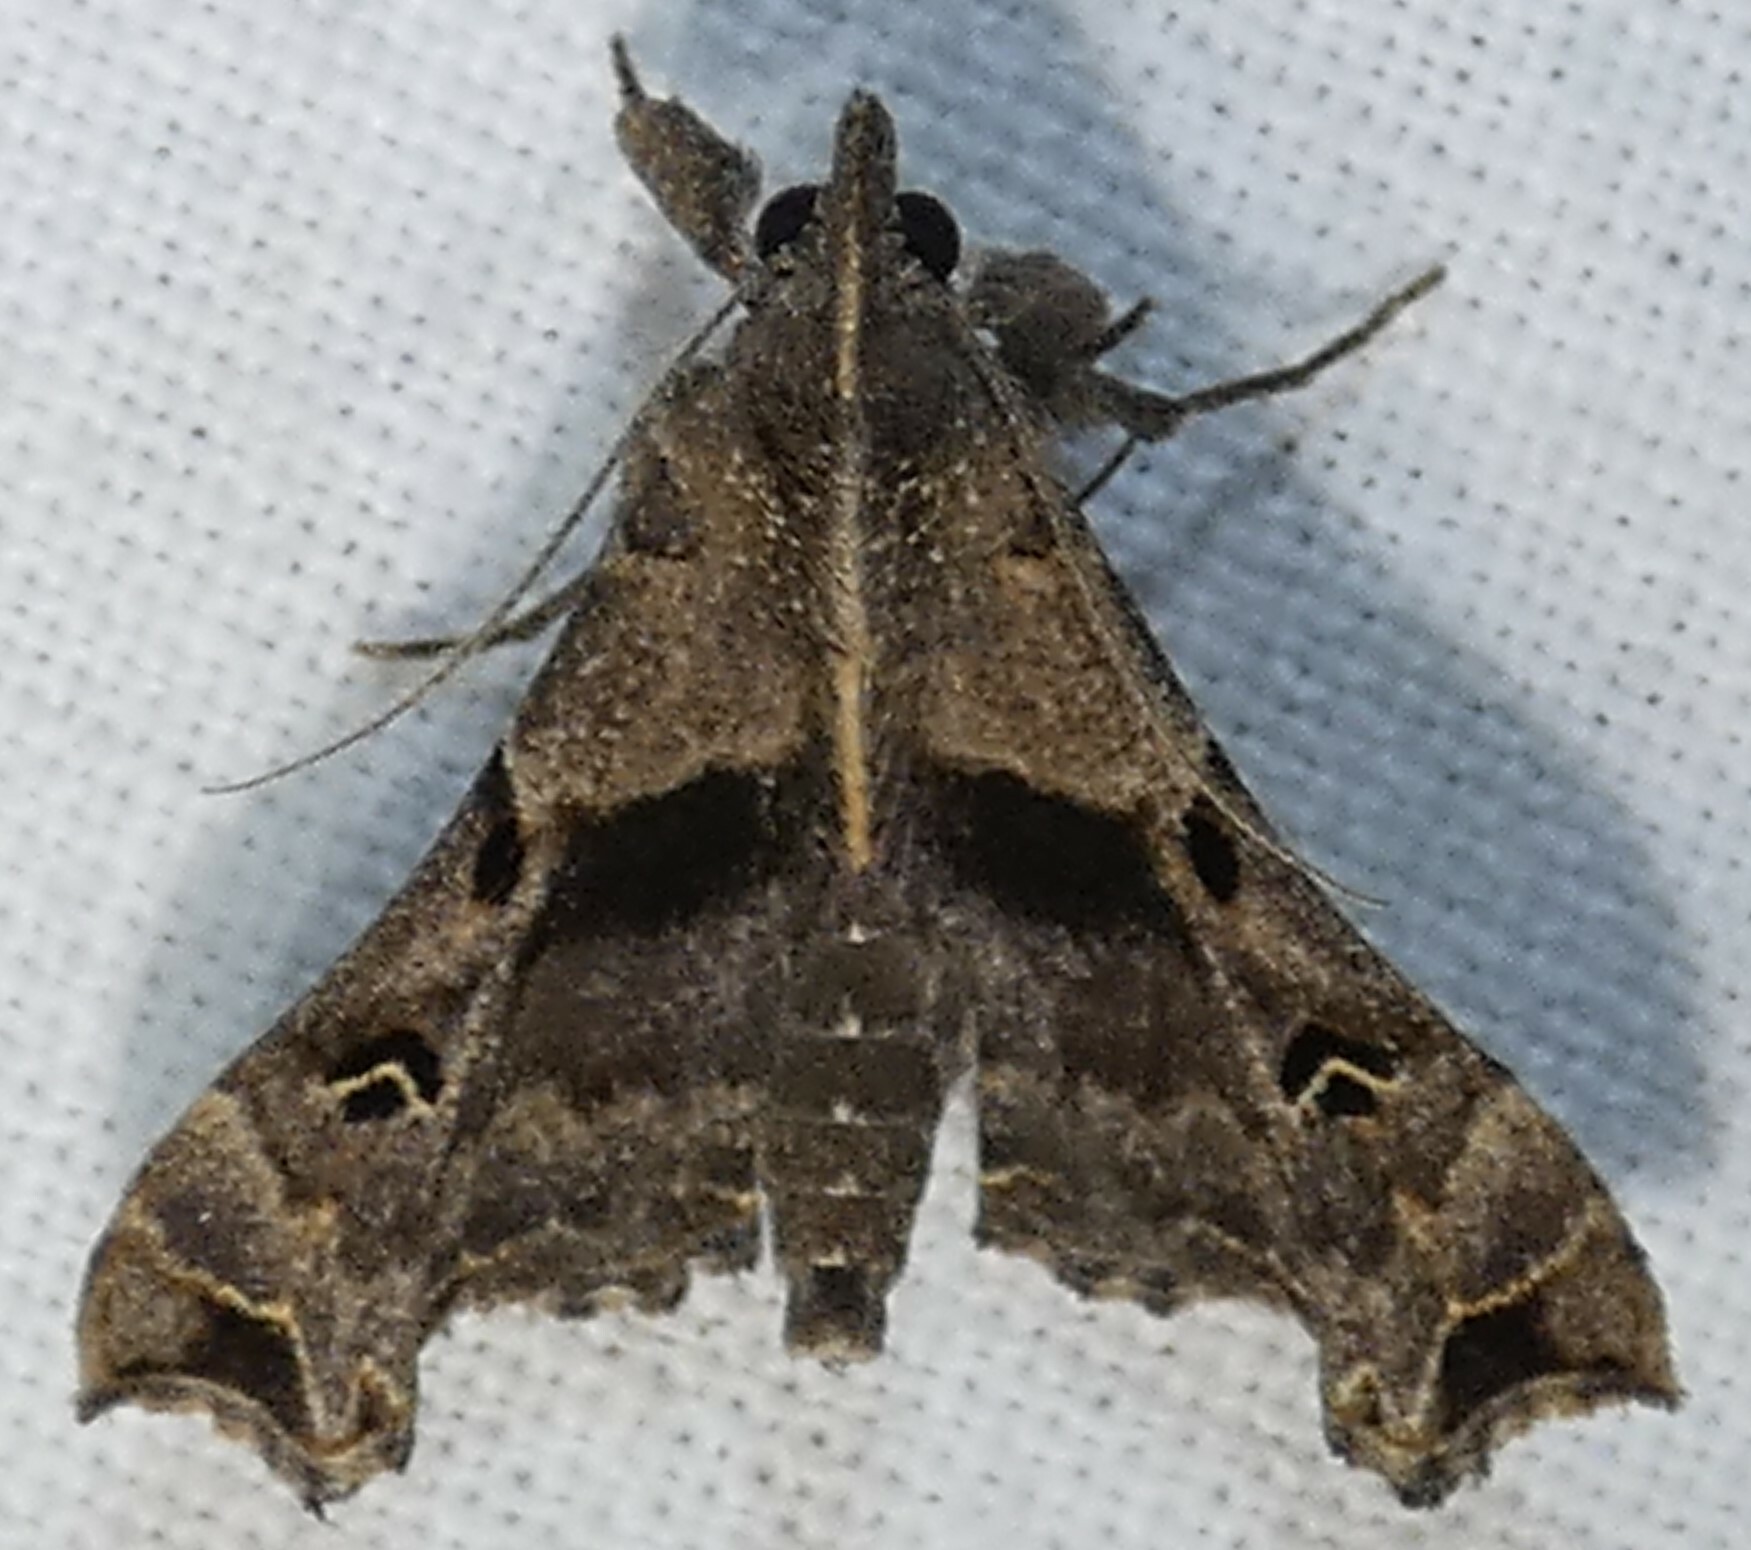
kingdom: Animalia
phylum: Arthropoda
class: Insecta
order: Lepidoptera
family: Erebidae
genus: Palthis
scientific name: Palthis asopialis
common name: Faint-spotted palthis moth
